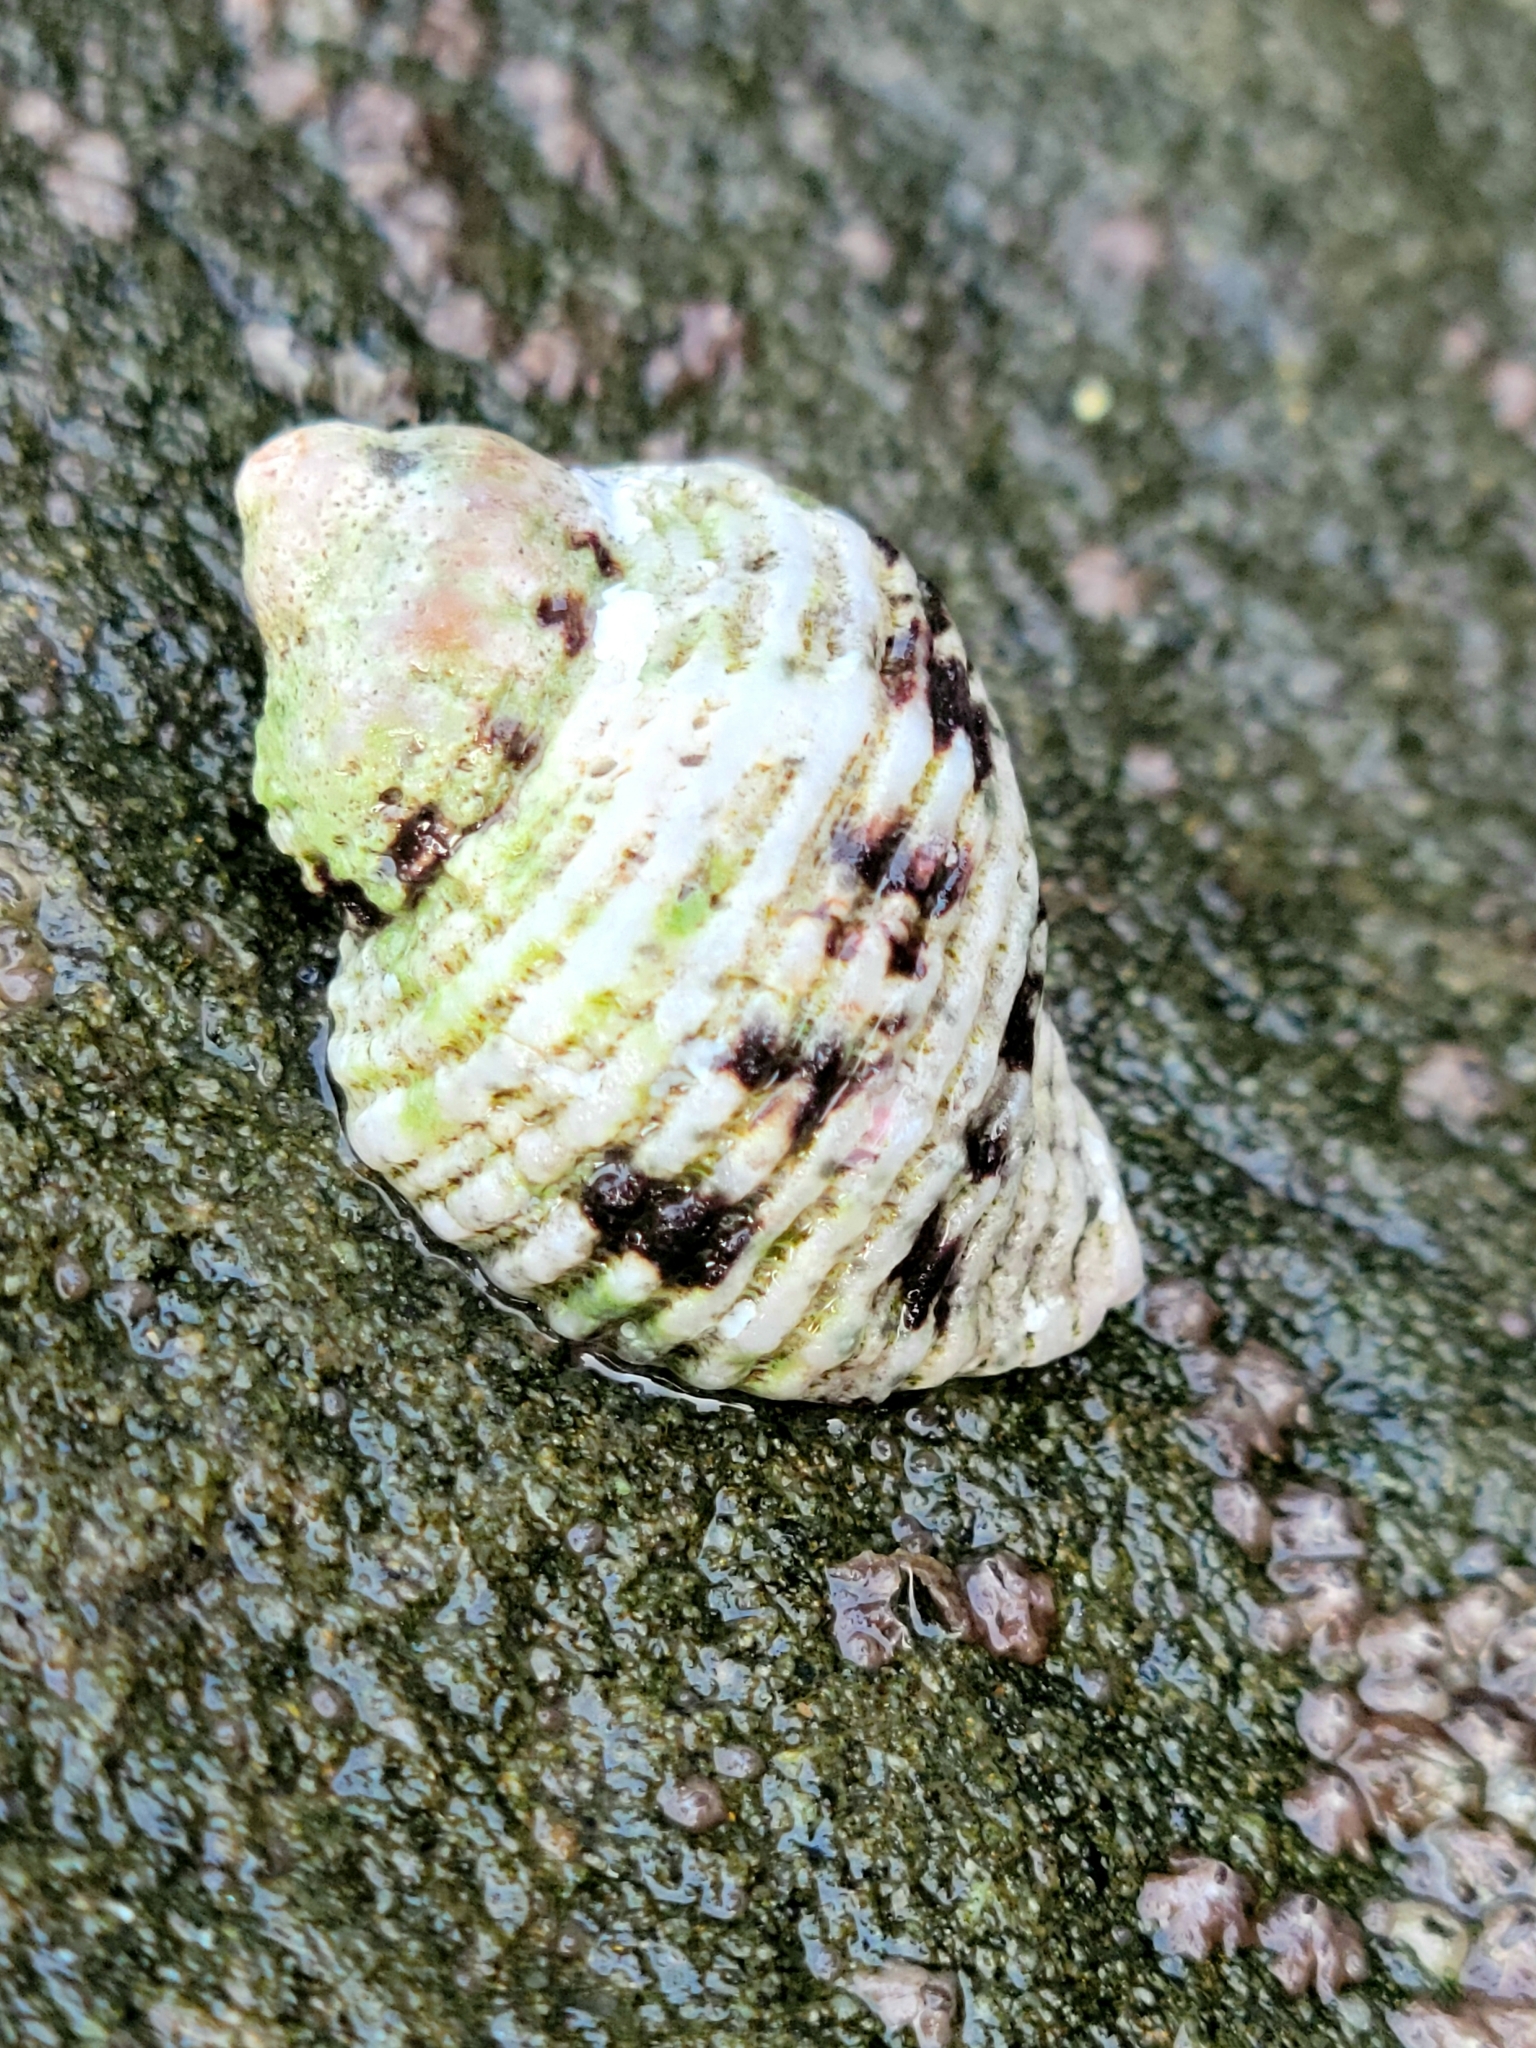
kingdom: Animalia
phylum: Mollusca
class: Gastropoda
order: Neogastropoda
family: Muricidae
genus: Paciocinebrina
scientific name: Paciocinebrina circumtexta
